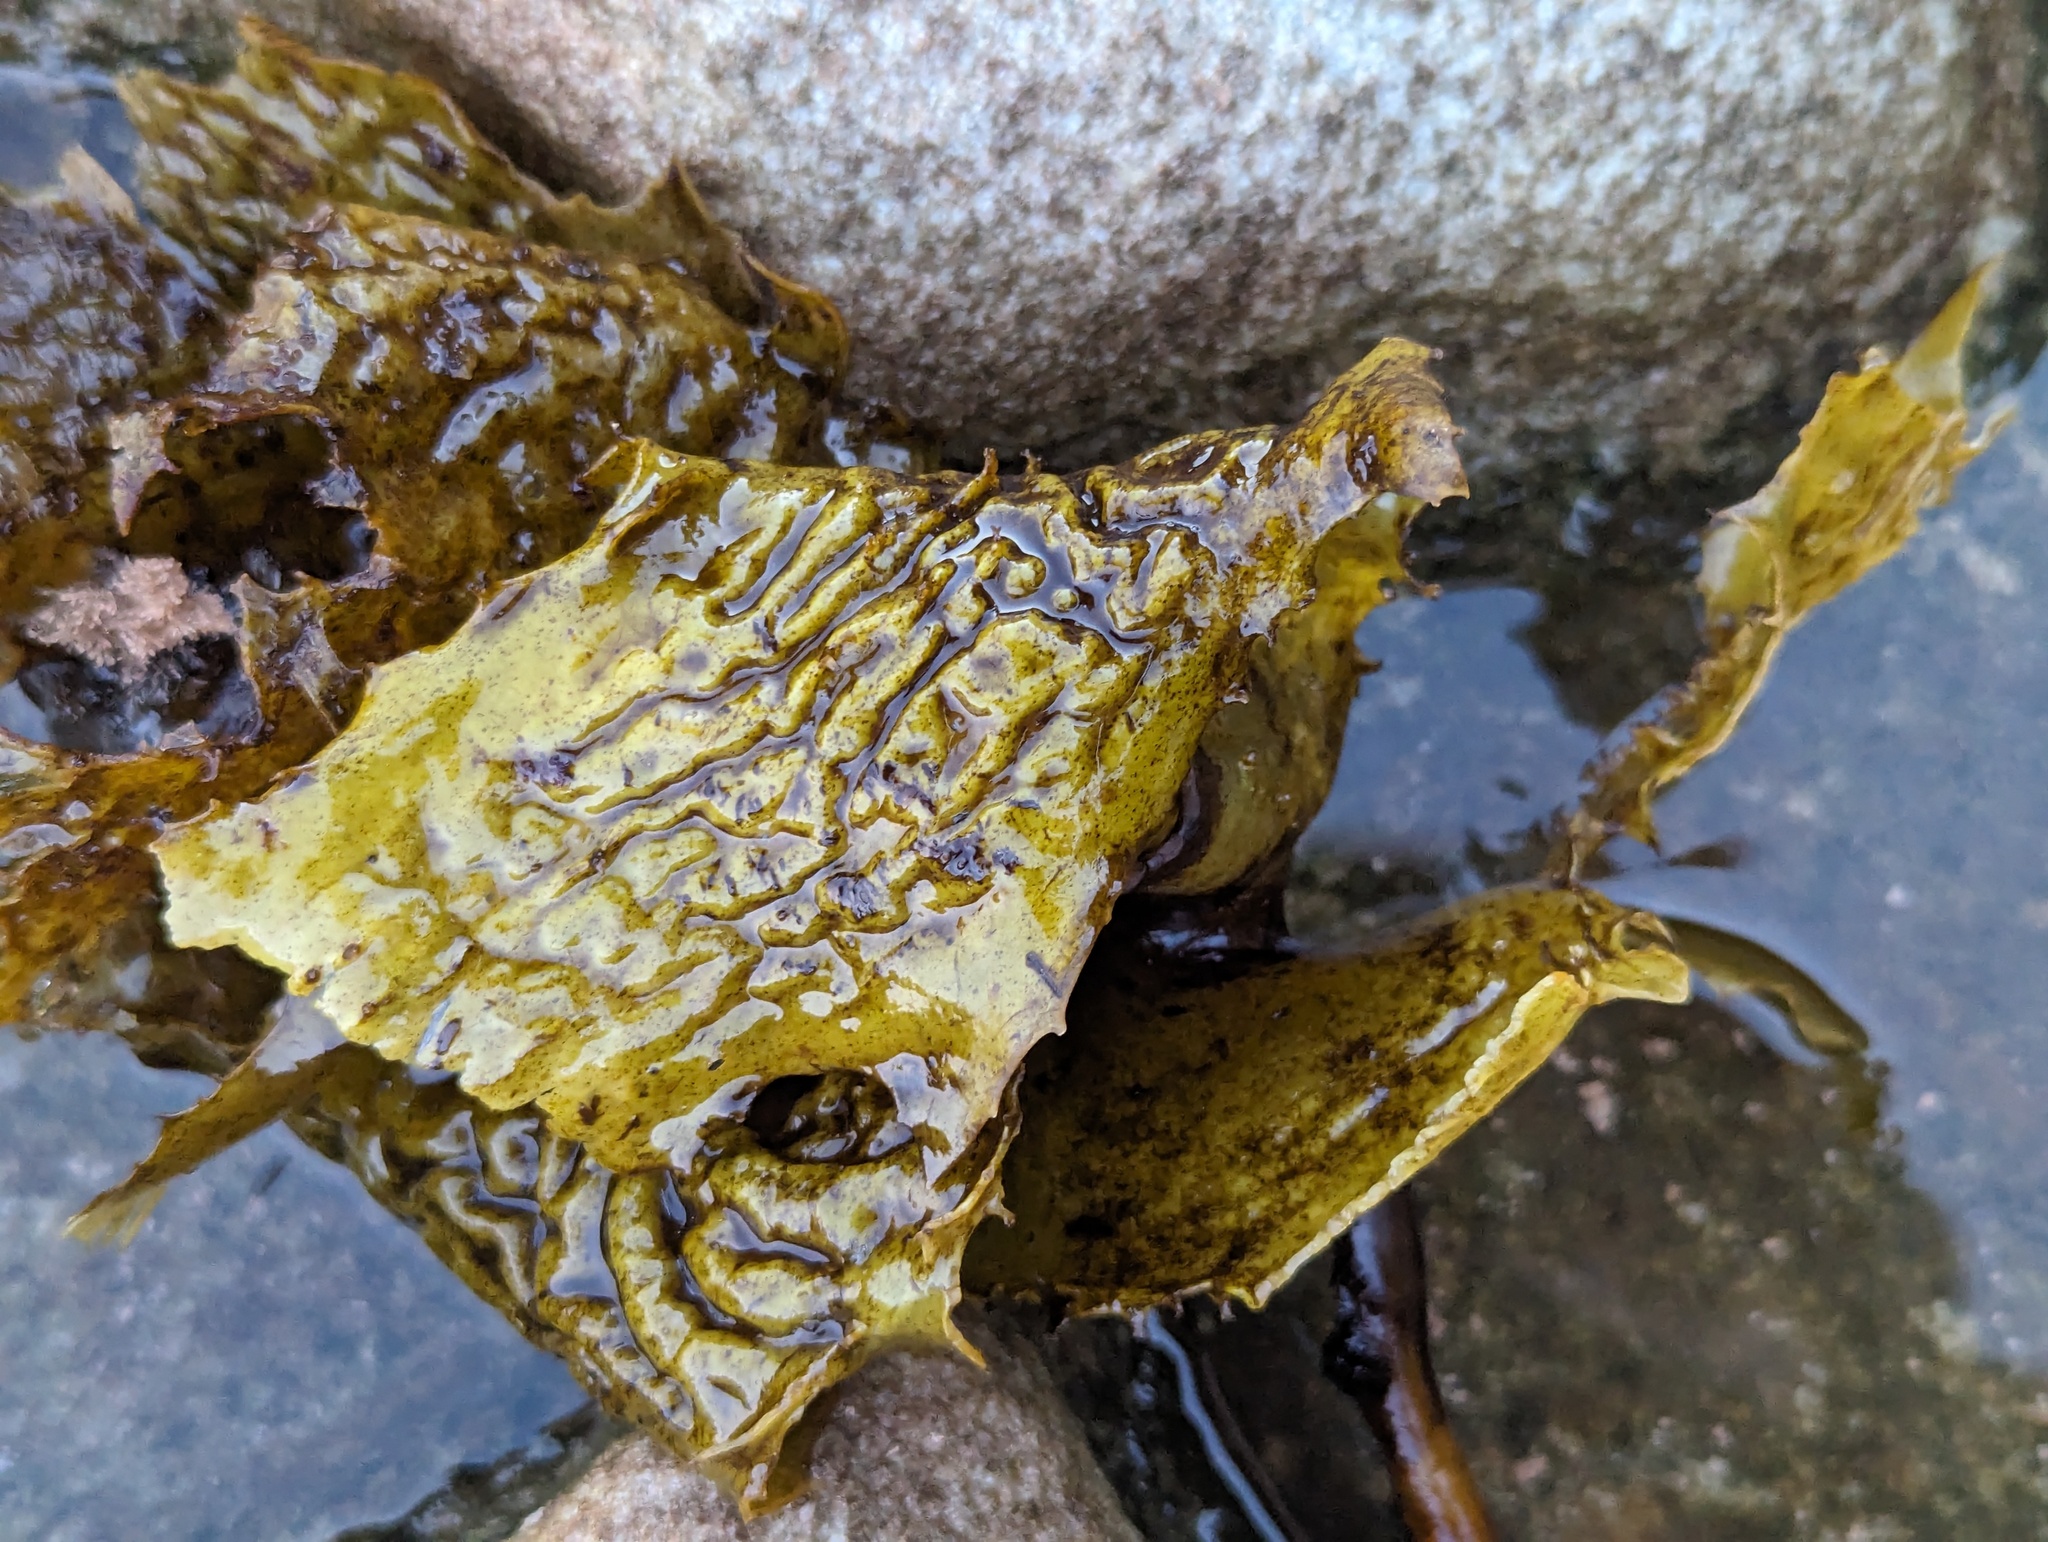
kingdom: Chromista
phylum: Ochrophyta
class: Phaeophyceae
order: Laminariales
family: Lessoniaceae
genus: Ecklonia
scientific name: Ecklonia radiata
